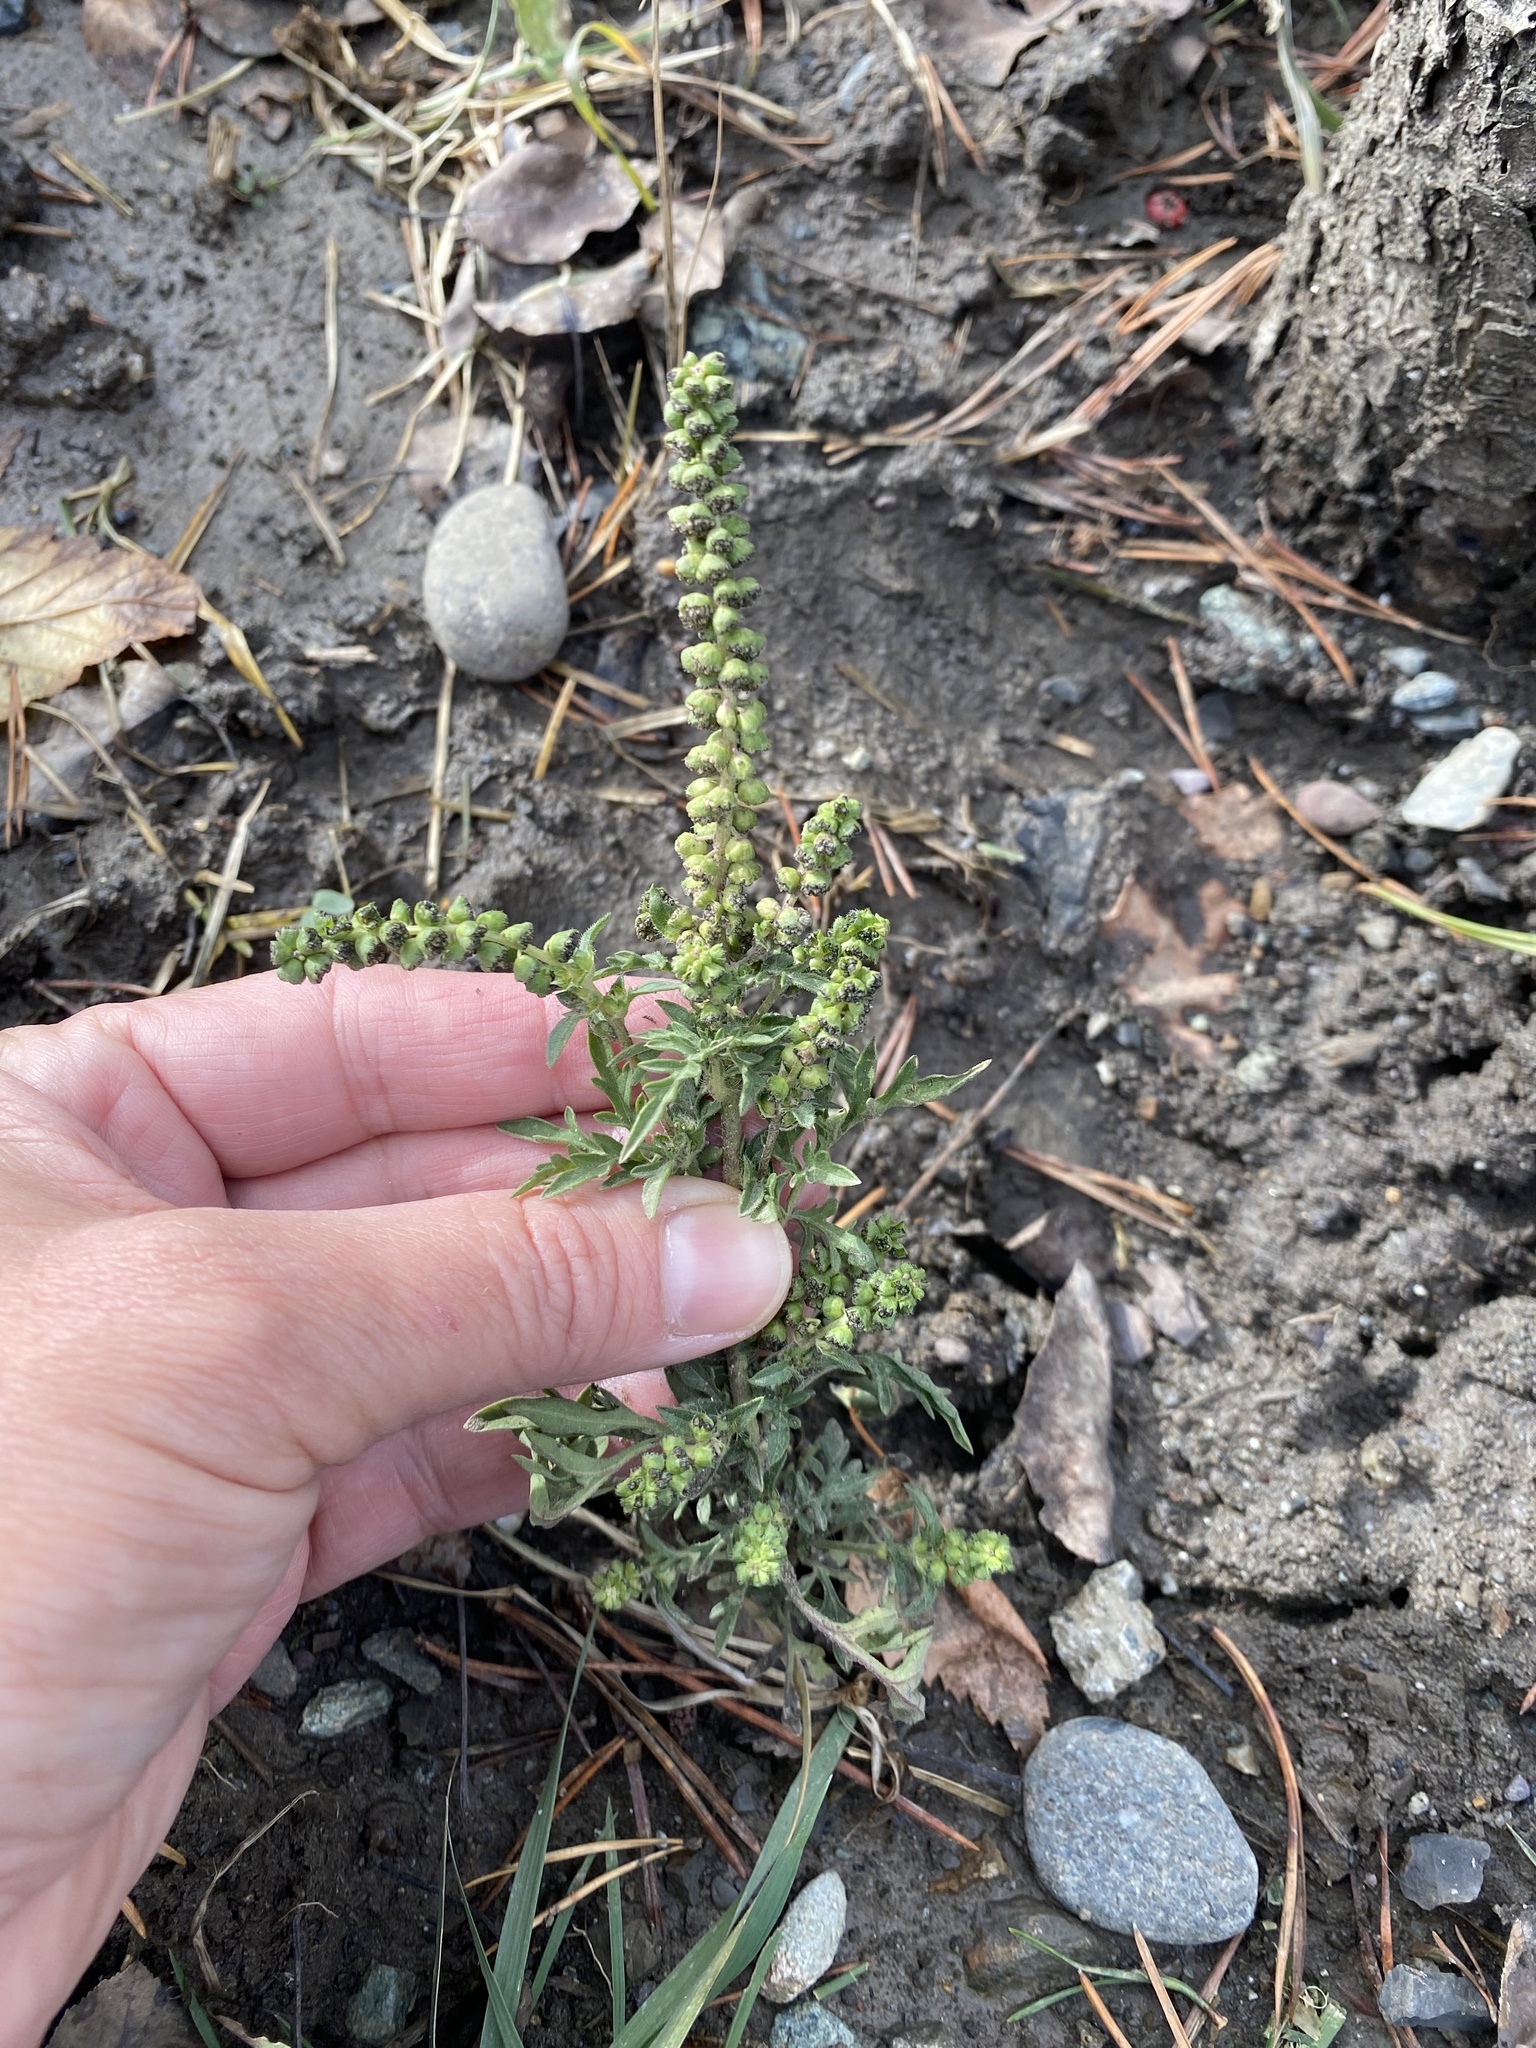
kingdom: Plantae
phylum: Tracheophyta
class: Magnoliopsida
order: Asterales
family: Asteraceae
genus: Ambrosia
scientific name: Ambrosia artemisiifolia
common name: Annual ragweed
